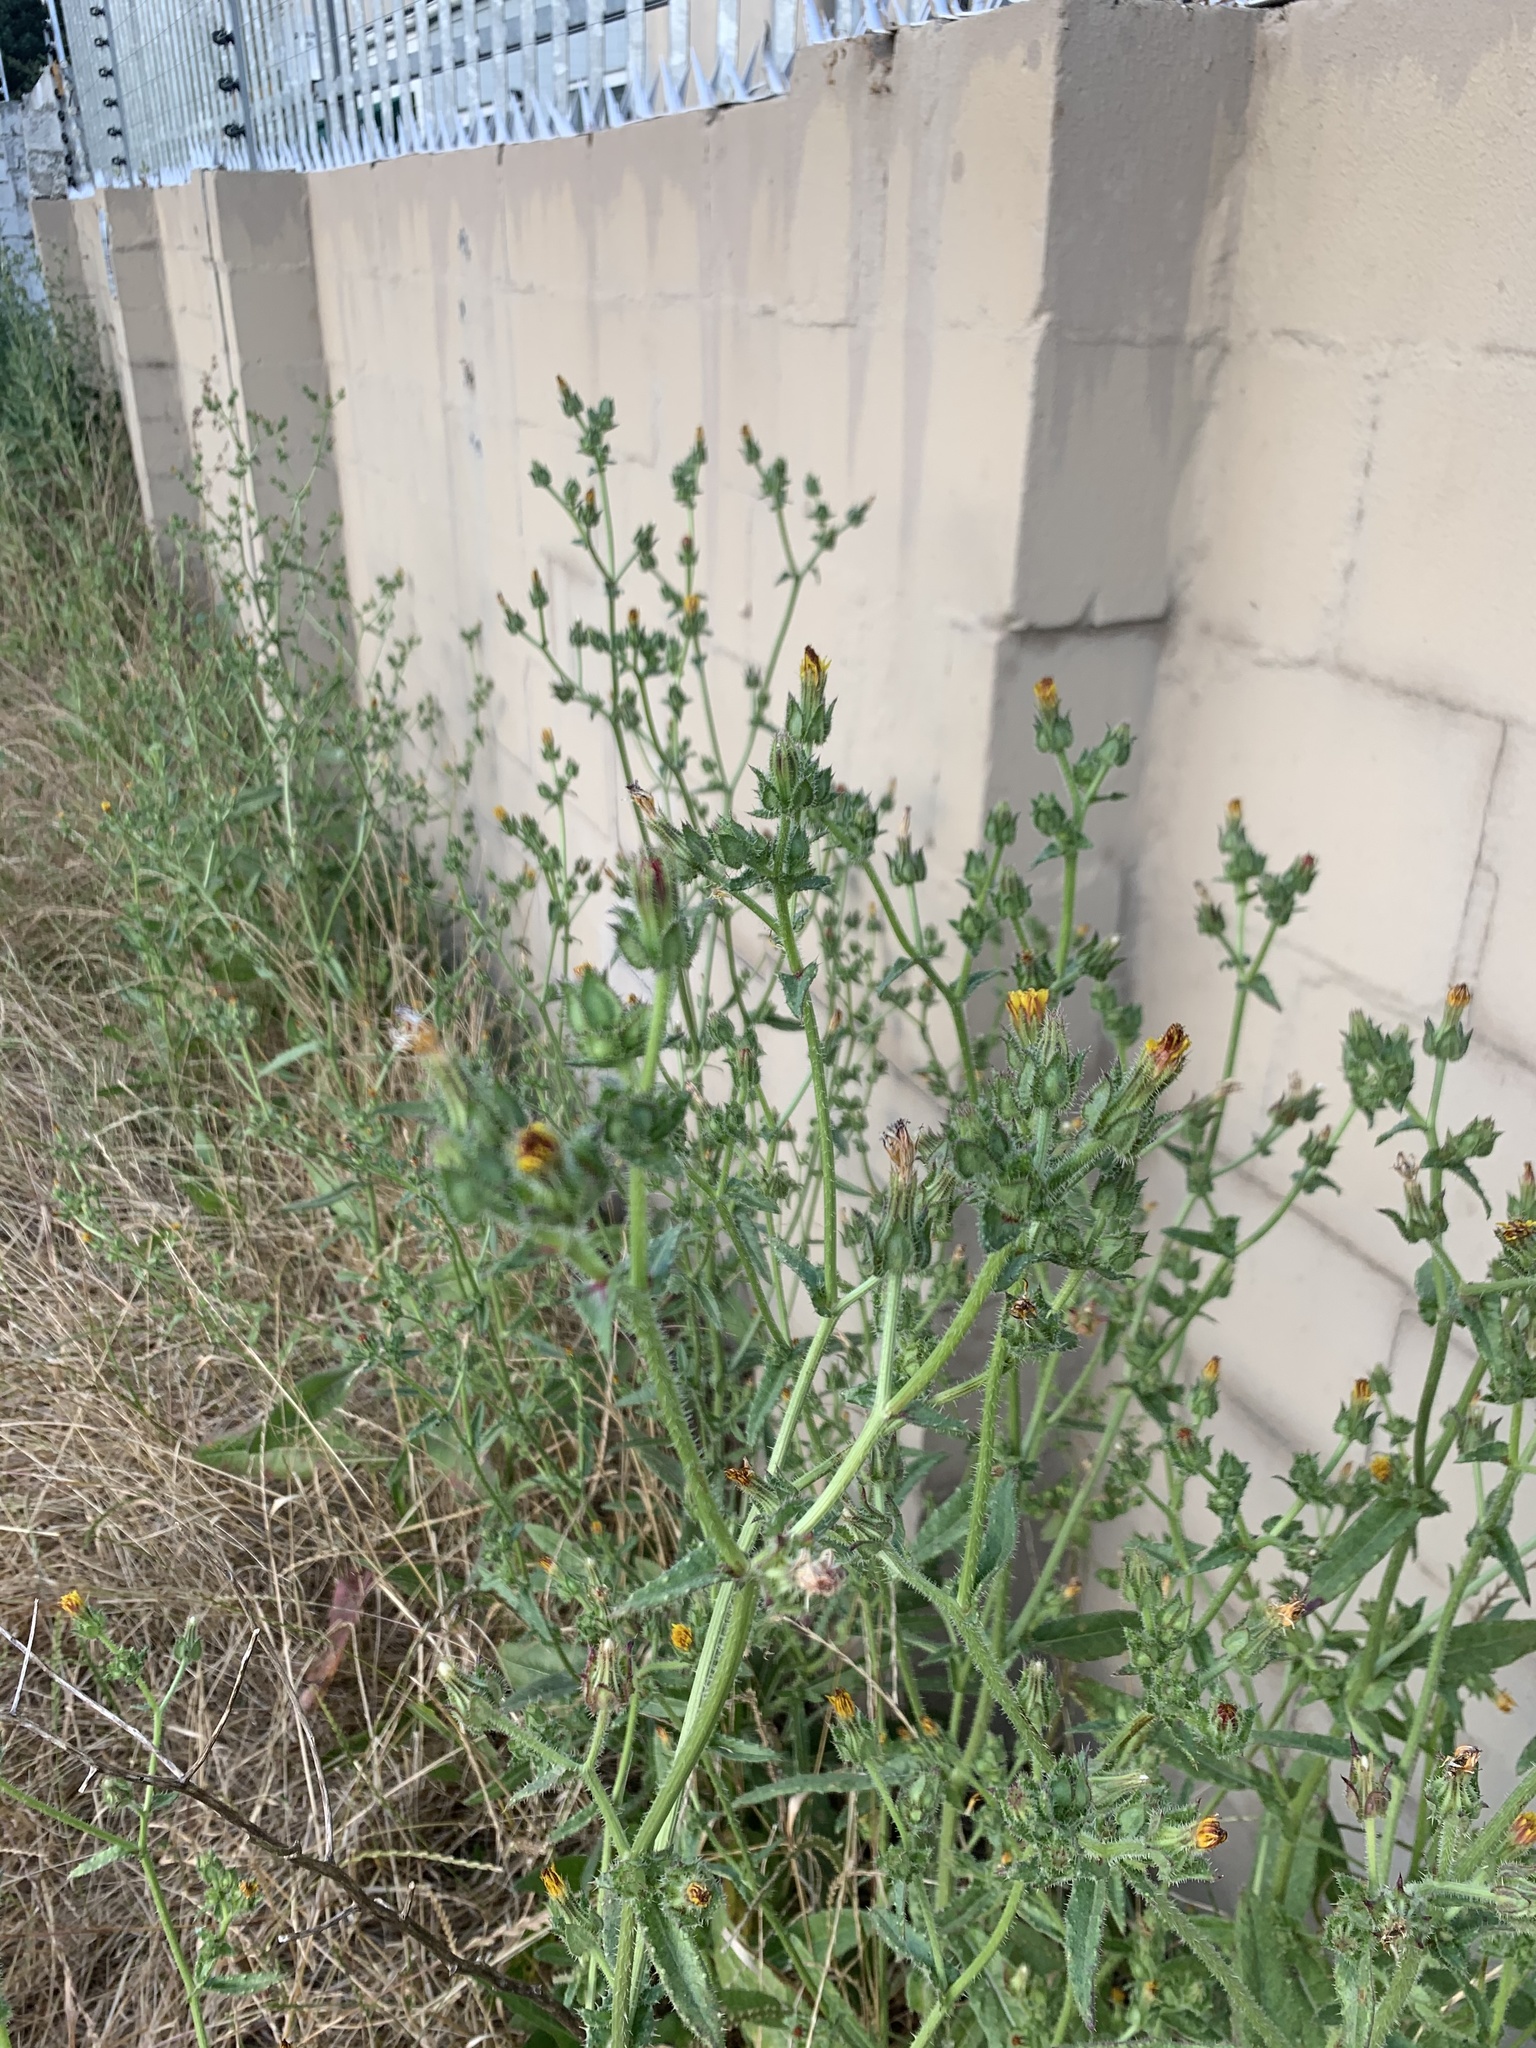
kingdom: Plantae
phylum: Tracheophyta
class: Magnoliopsida
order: Asterales
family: Asteraceae
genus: Helminthotheca
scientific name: Helminthotheca echioides
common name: Ox-tongue
